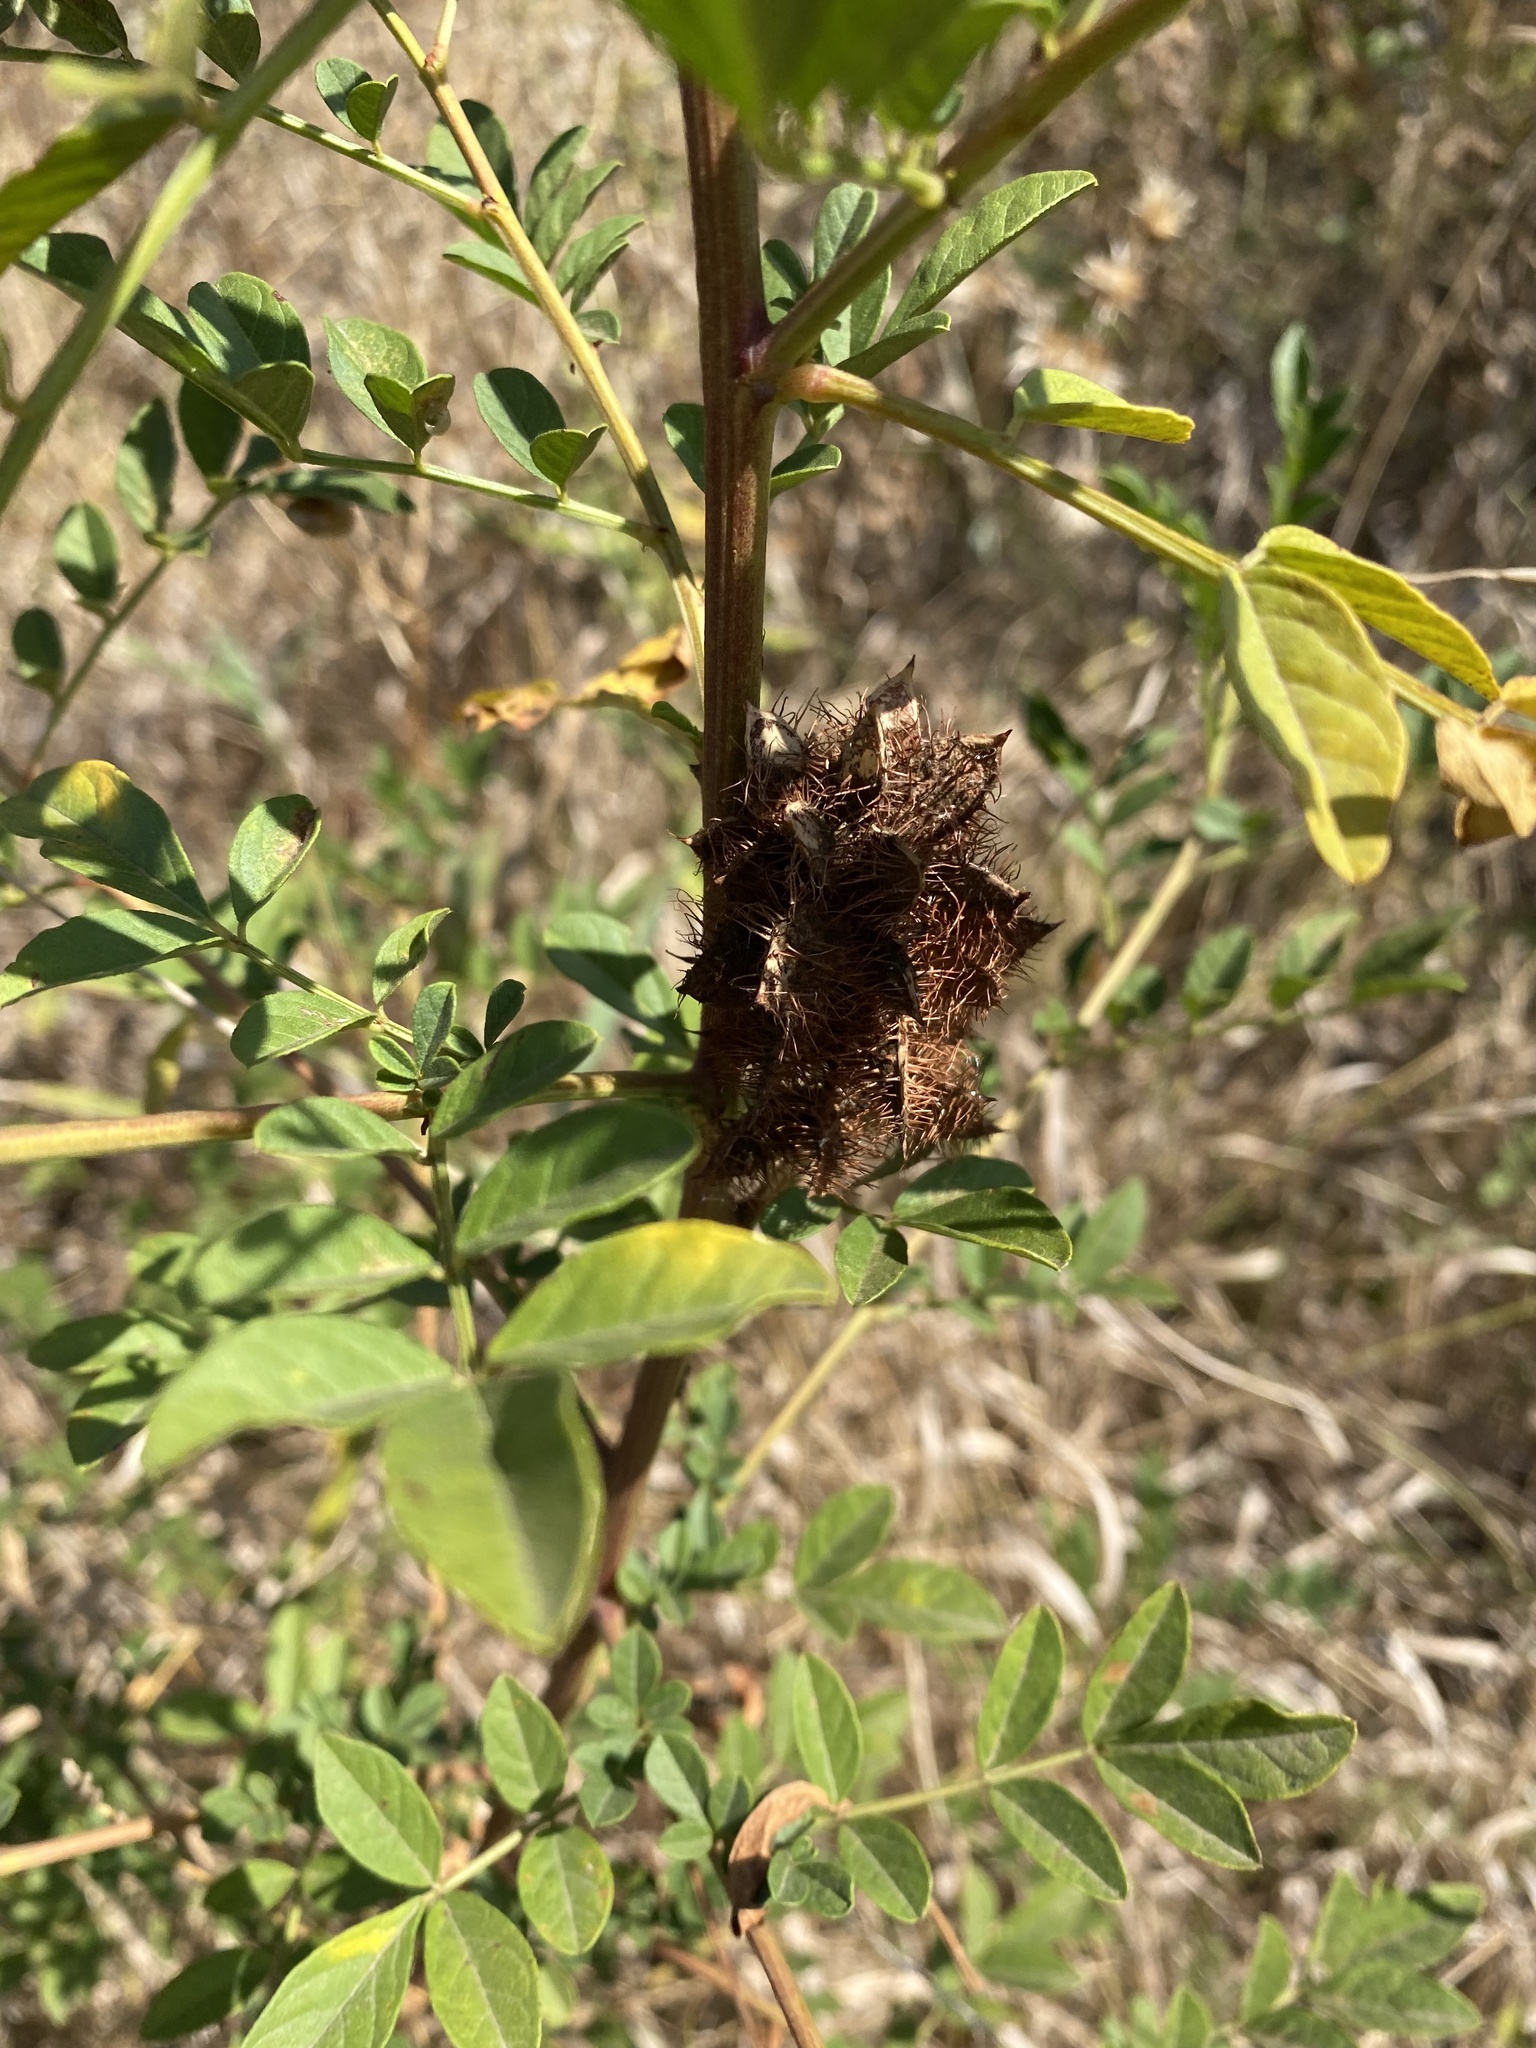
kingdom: Plantae
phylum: Tracheophyta
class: Magnoliopsida
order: Fabales
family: Fabaceae
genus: Glycyrrhiza
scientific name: Glycyrrhiza echinata
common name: German liquorice
